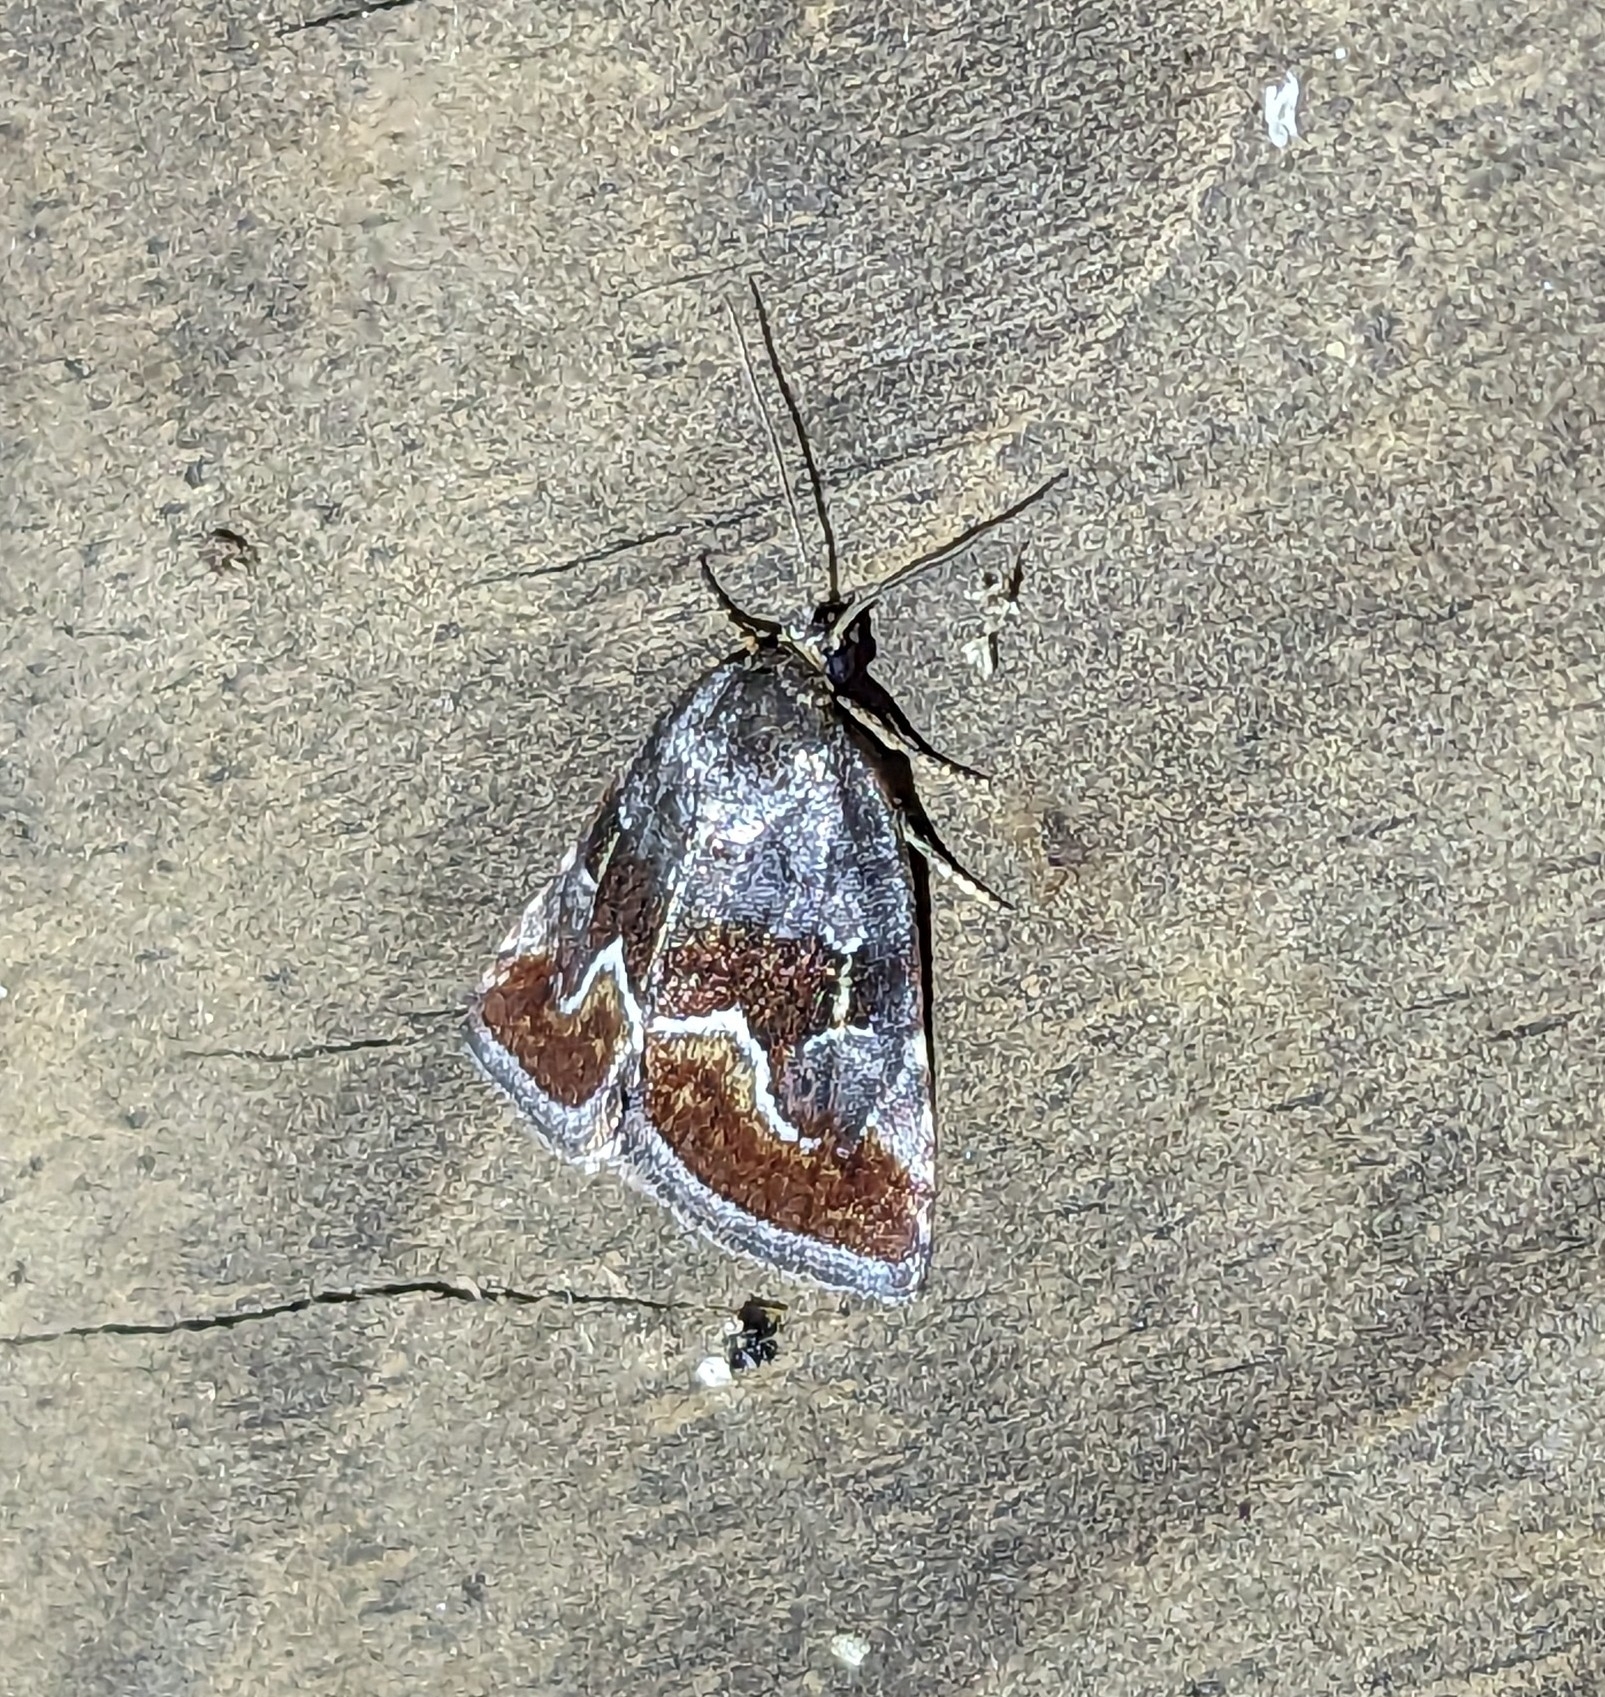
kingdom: Animalia
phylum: Arthropoda
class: Insecta
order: Lepidoptera
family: Noctuidae
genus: Deltote
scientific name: Deltote bellicula
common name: Bog glyph
